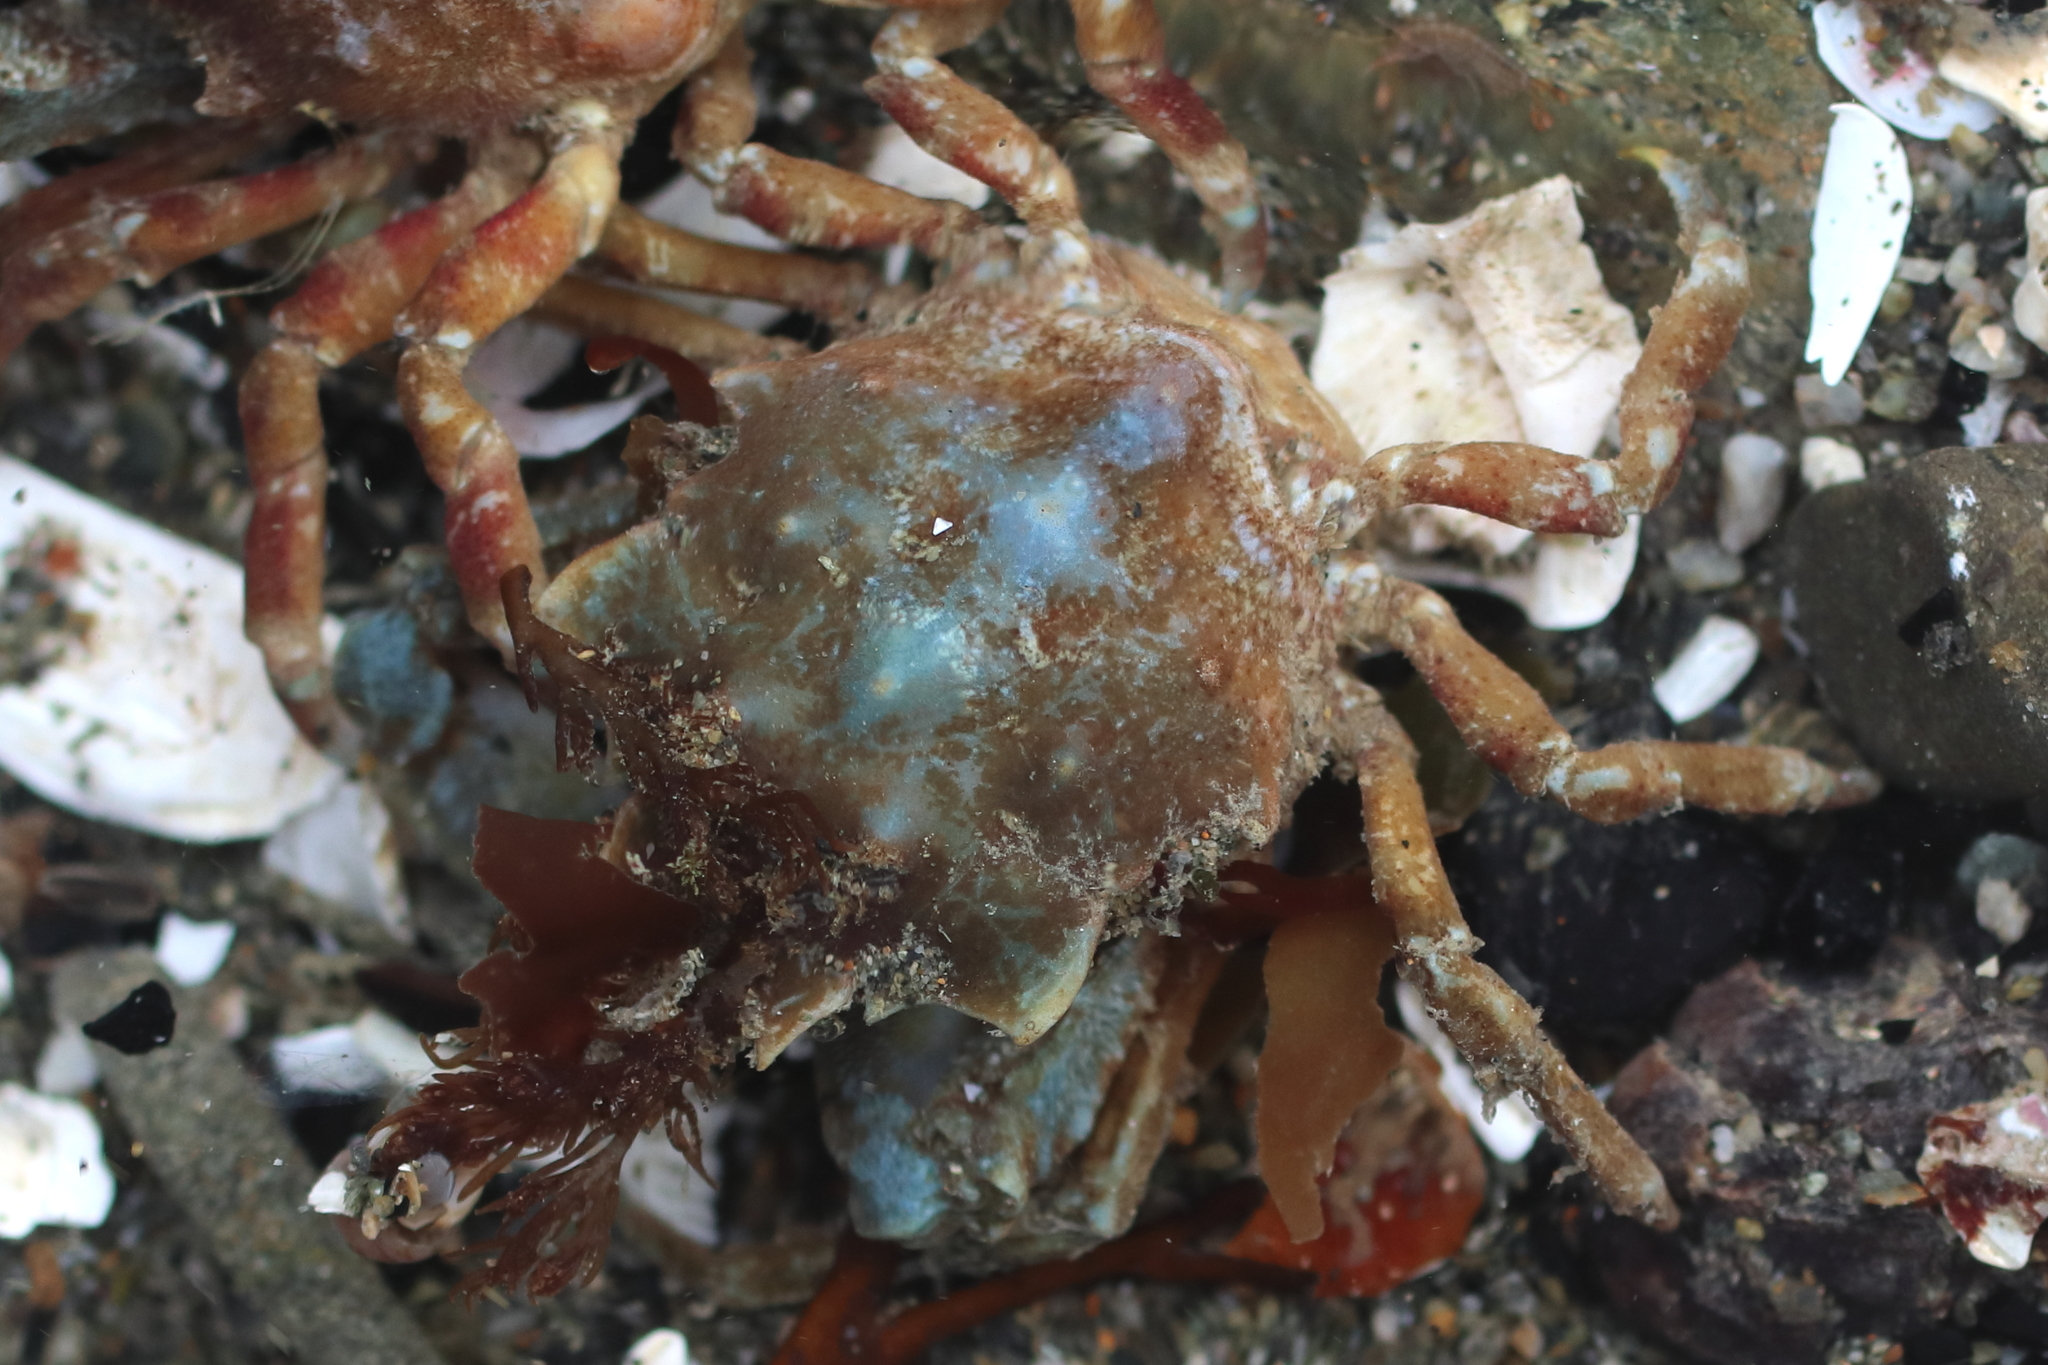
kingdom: Animalia
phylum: Arthropoda
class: Malacostraca
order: Decapoda
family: Epialtidae
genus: Pugettia
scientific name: Pugettia gracilis
